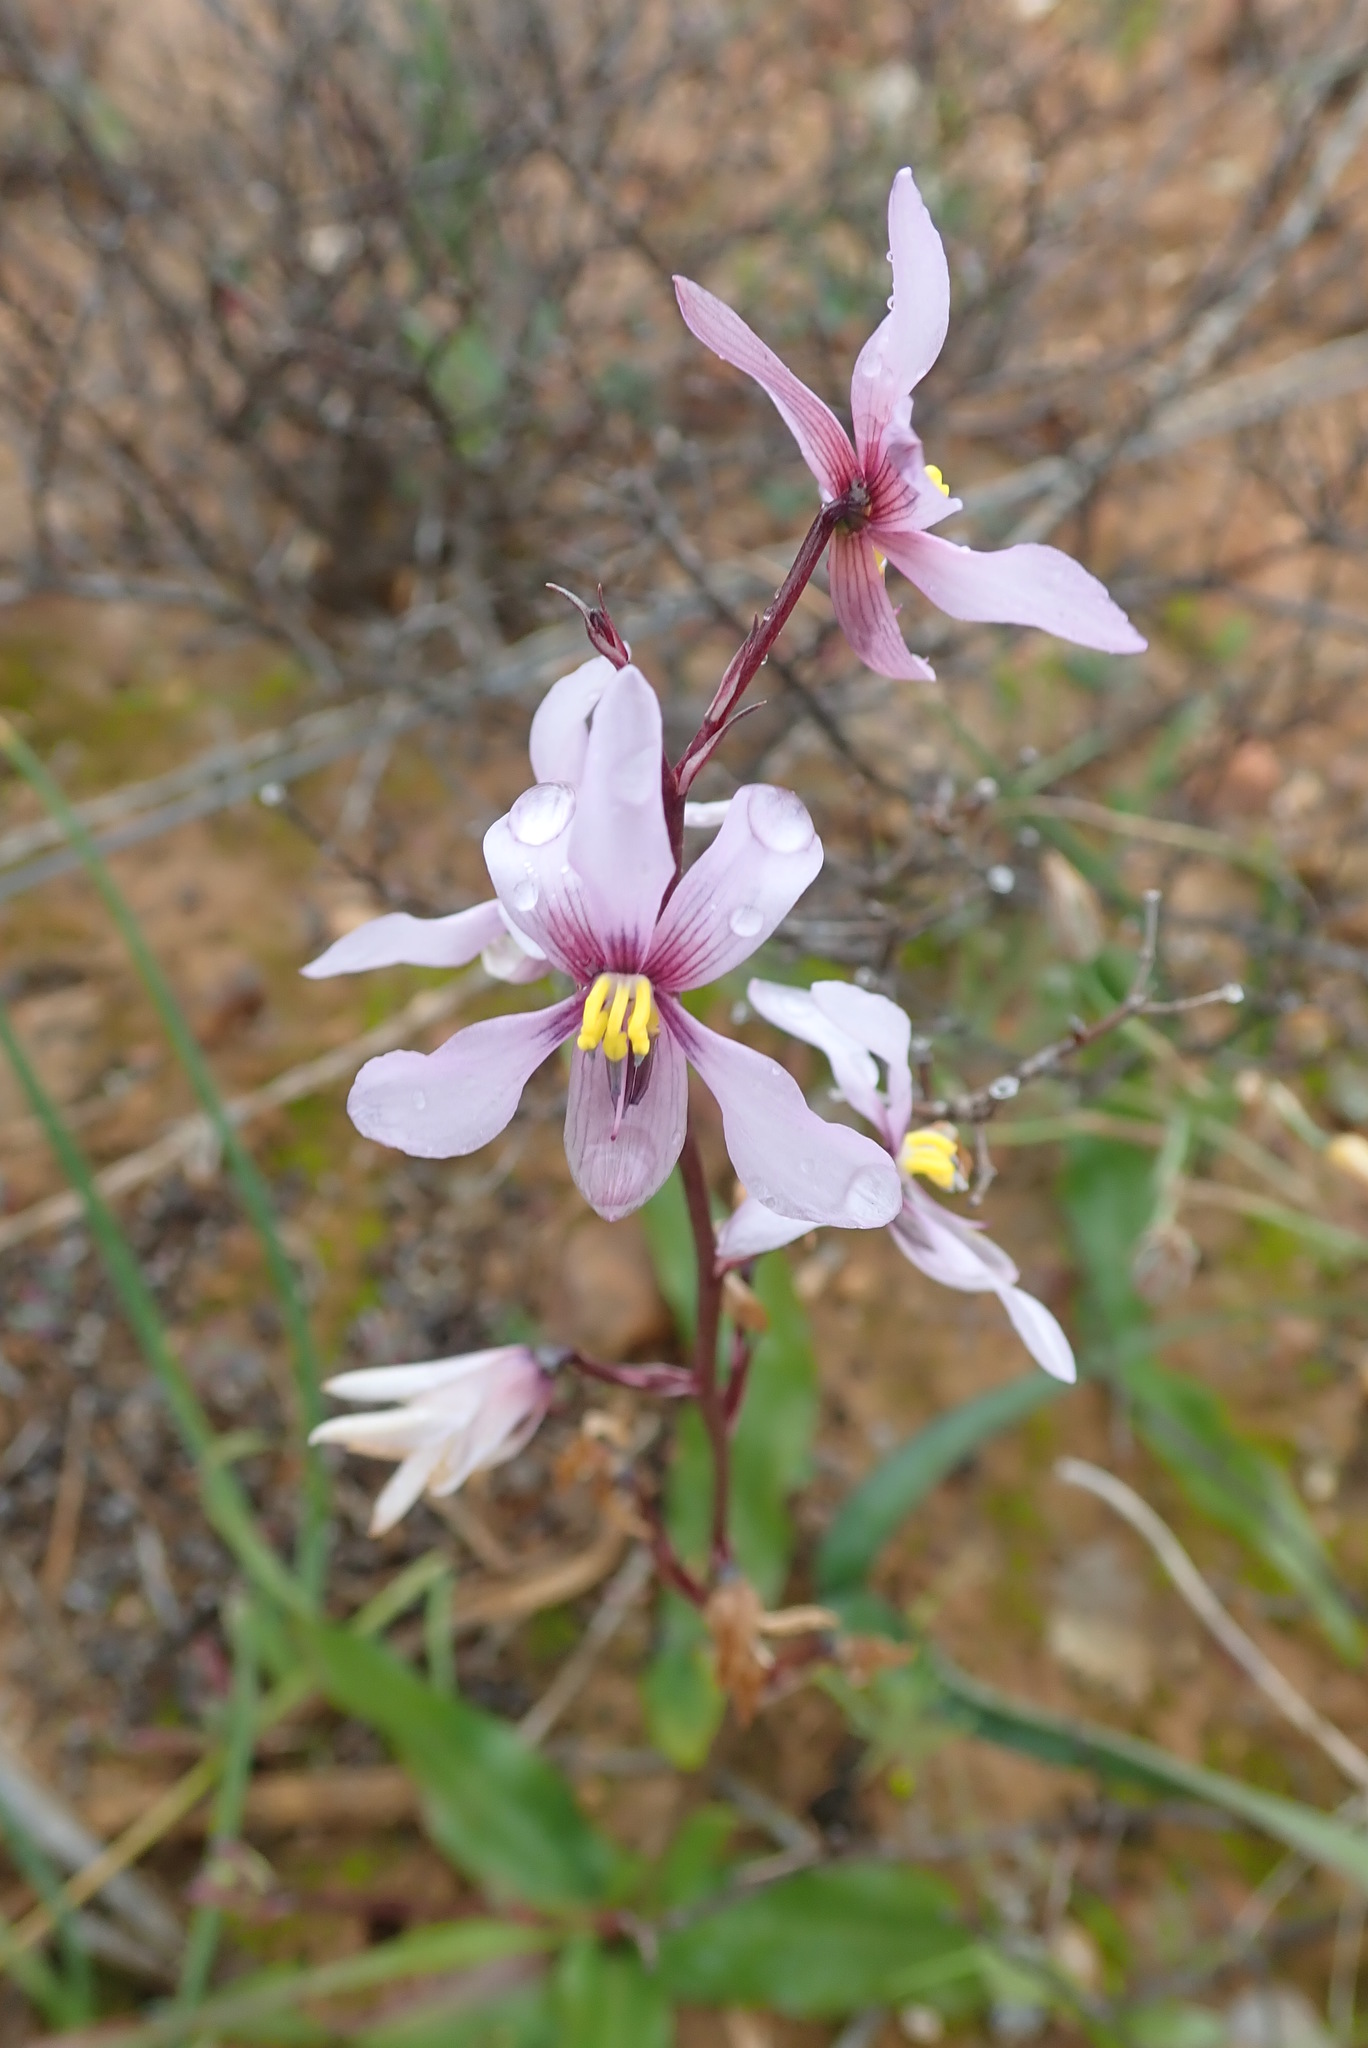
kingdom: Plantae
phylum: Tracheophyta
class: Liliopsida
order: Asparagales
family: Tecophilaeaceae
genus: Cyanella
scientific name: Cyanella orchidiformis
